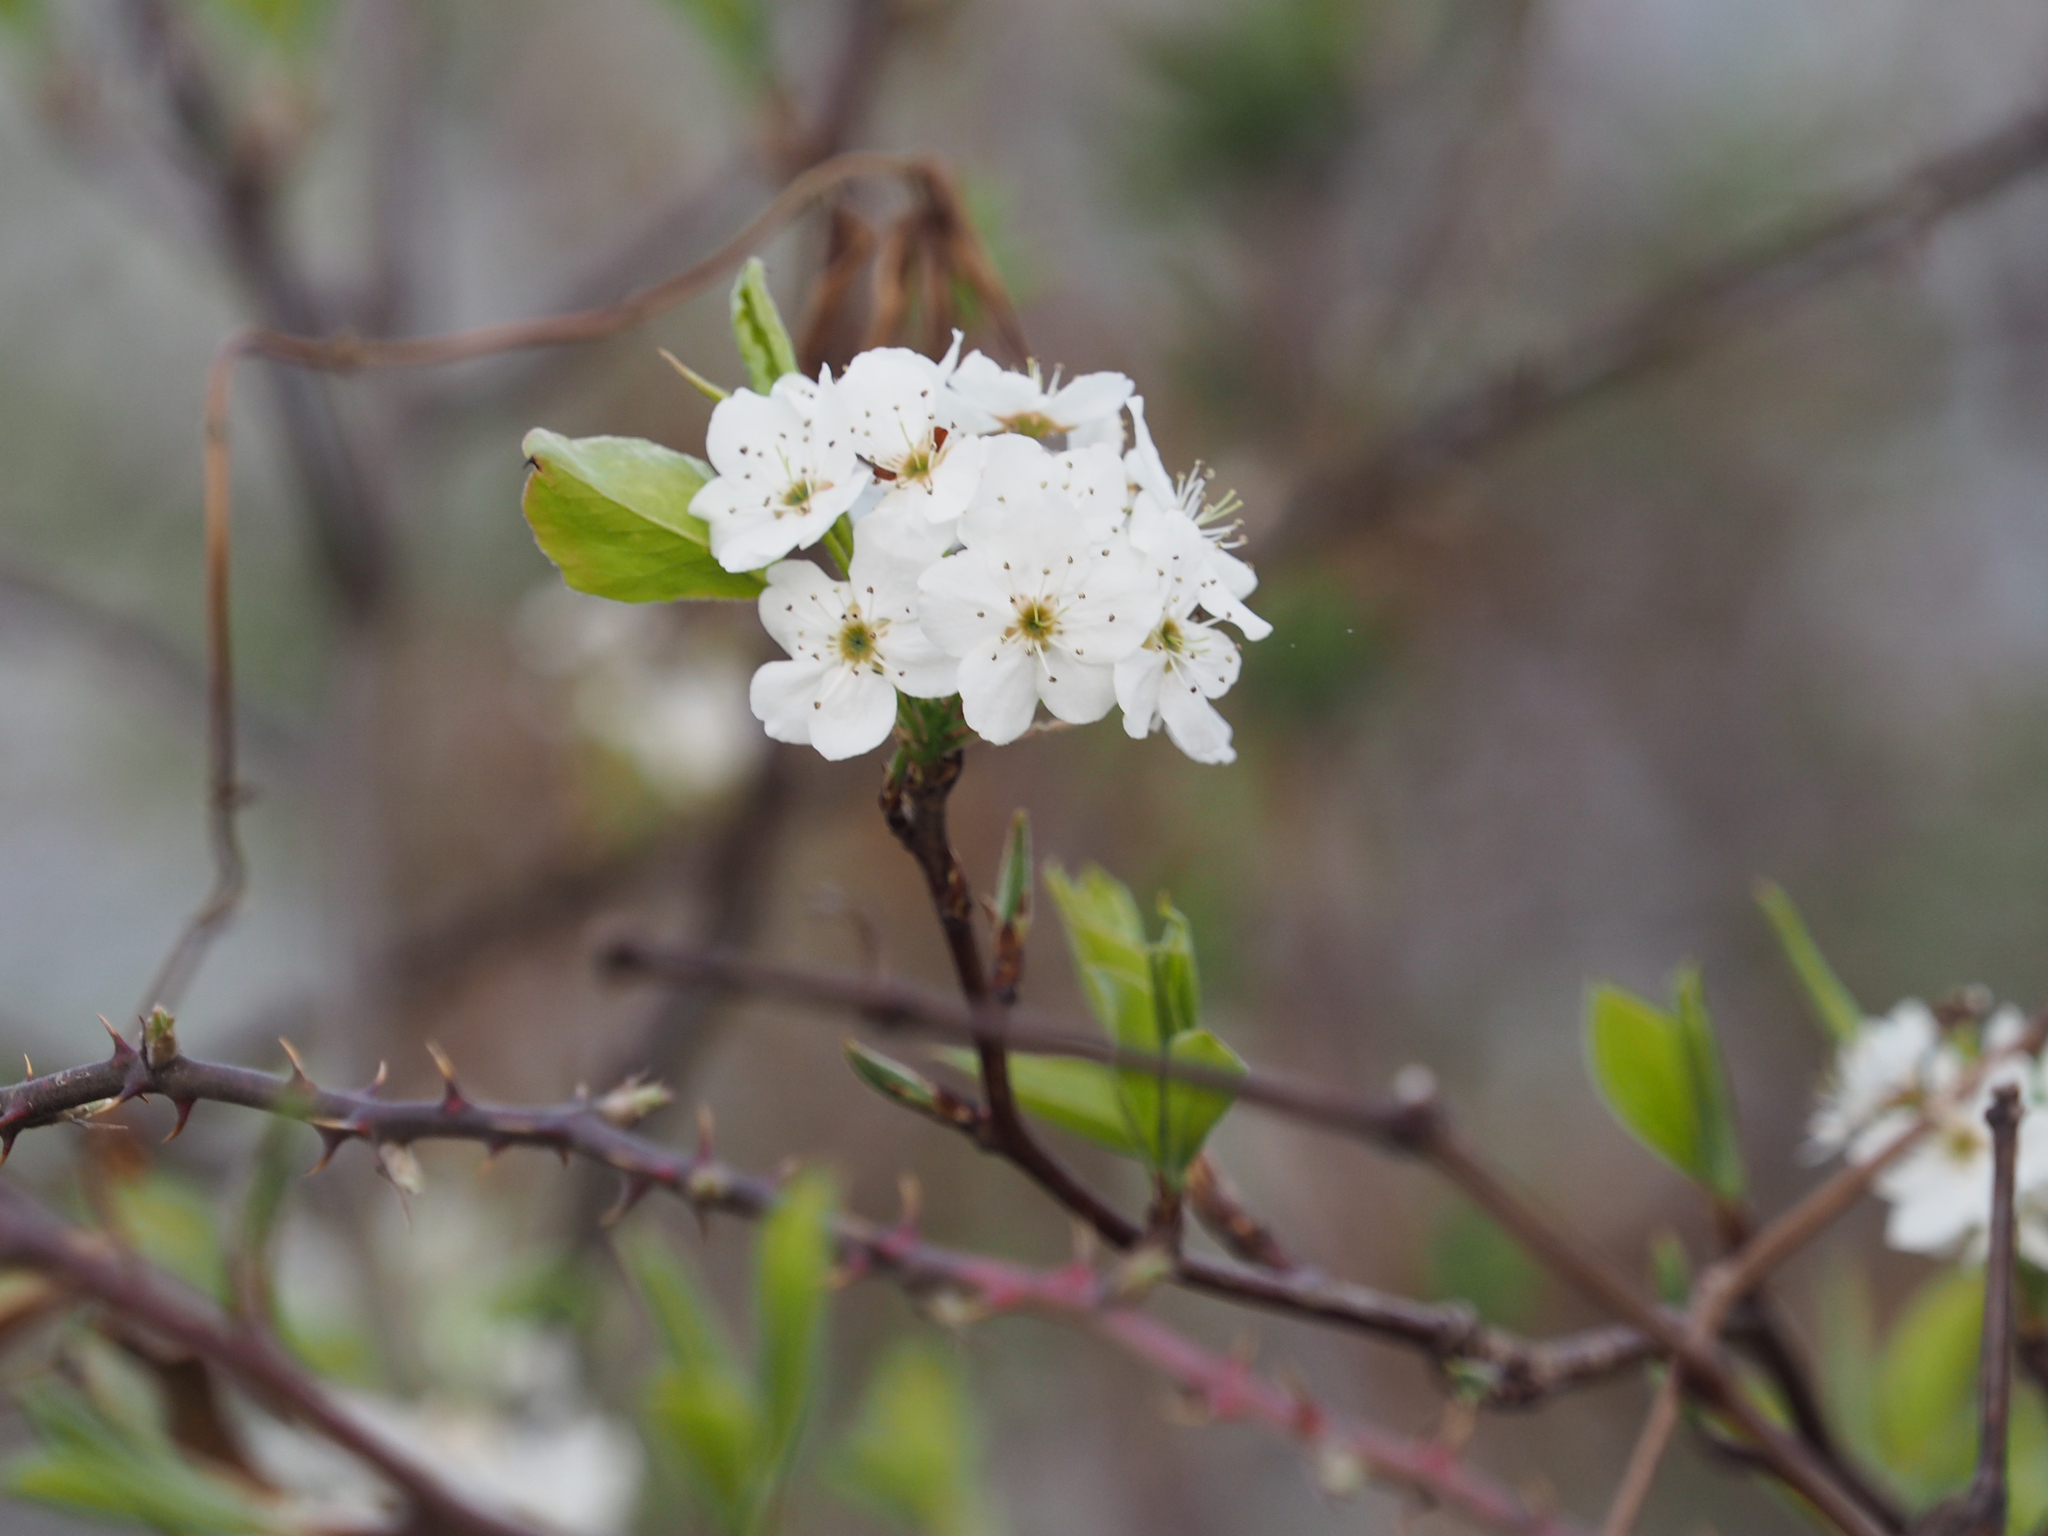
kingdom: Plantae
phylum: Tracheophyta
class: Magnoliopsida
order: Rosales
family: Rosaceae
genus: Pyrus
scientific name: Pyrus calleryana
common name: Callery pear
